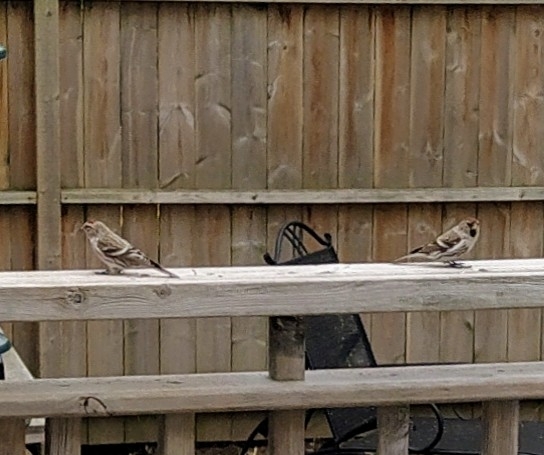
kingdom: Animalia
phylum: Chordata
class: Aves
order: Passeriformes
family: Fringillidae
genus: Acanthis
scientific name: Acanthis flammea
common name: Common redpoll
